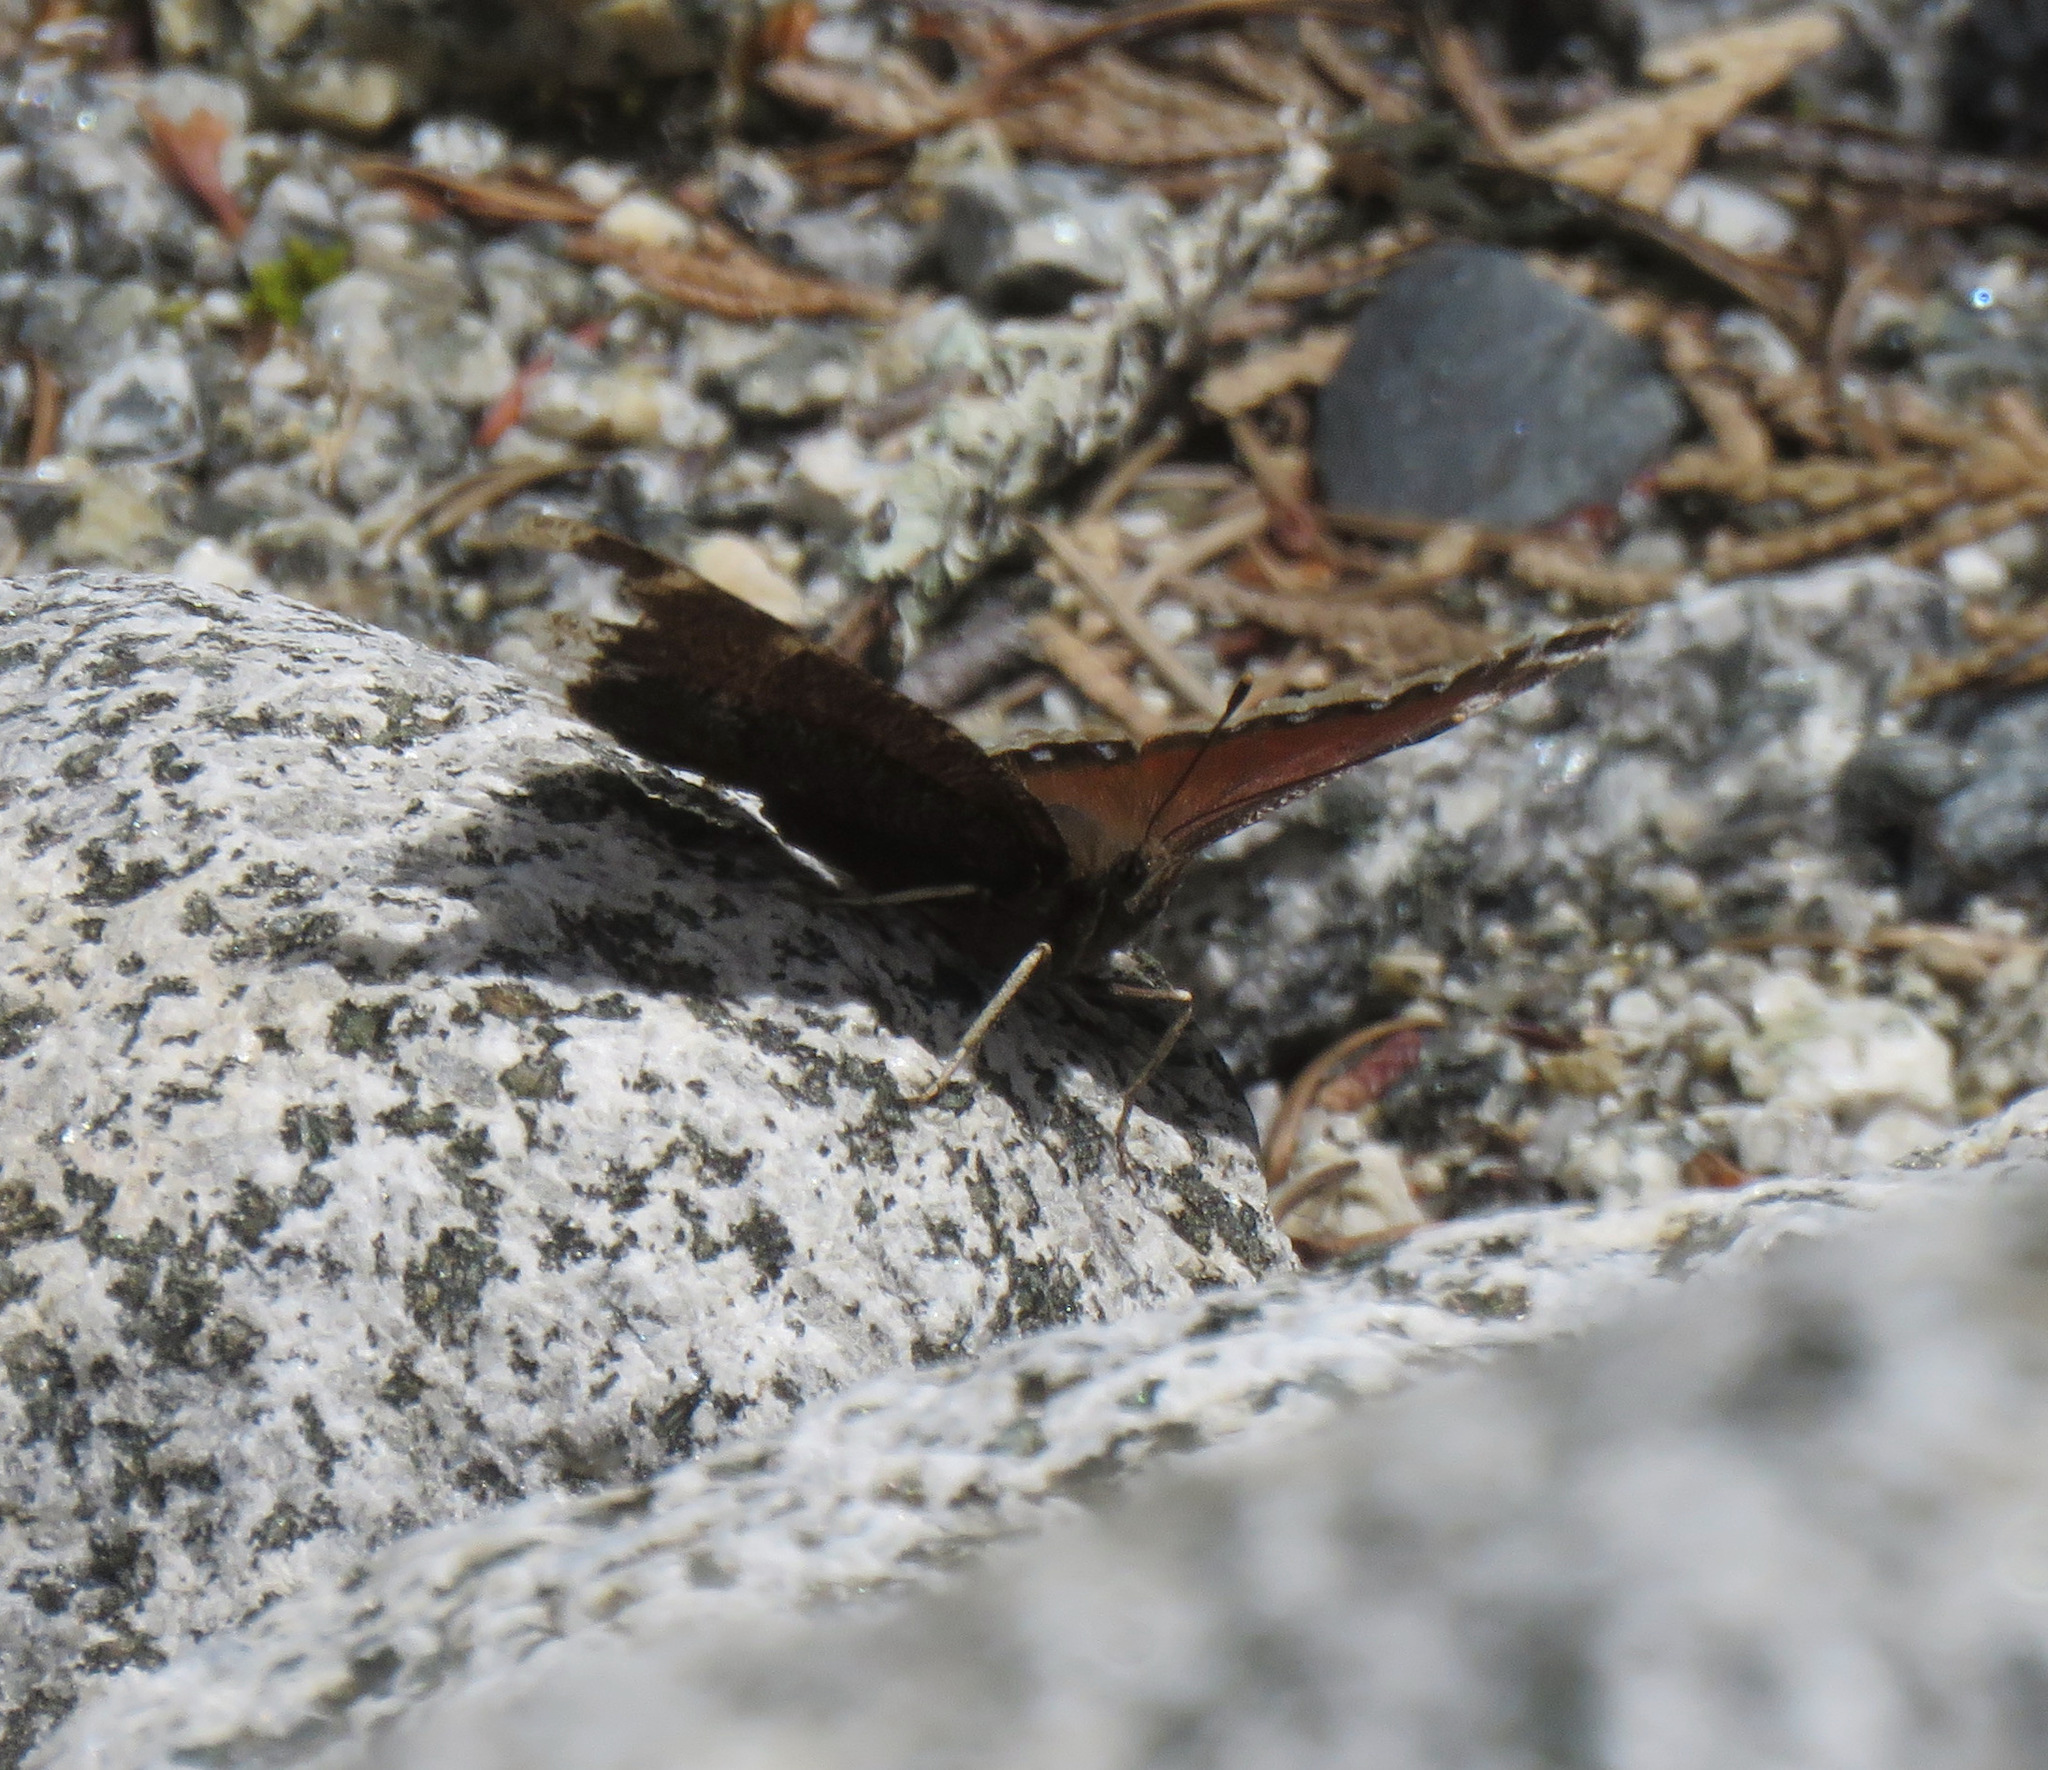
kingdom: Animalia
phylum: Arthropoda
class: Insecta
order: Lepidoptera
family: Nymphalidae
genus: Nymphalis
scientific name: Nymphalis antiopa
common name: Camberwell beauty
